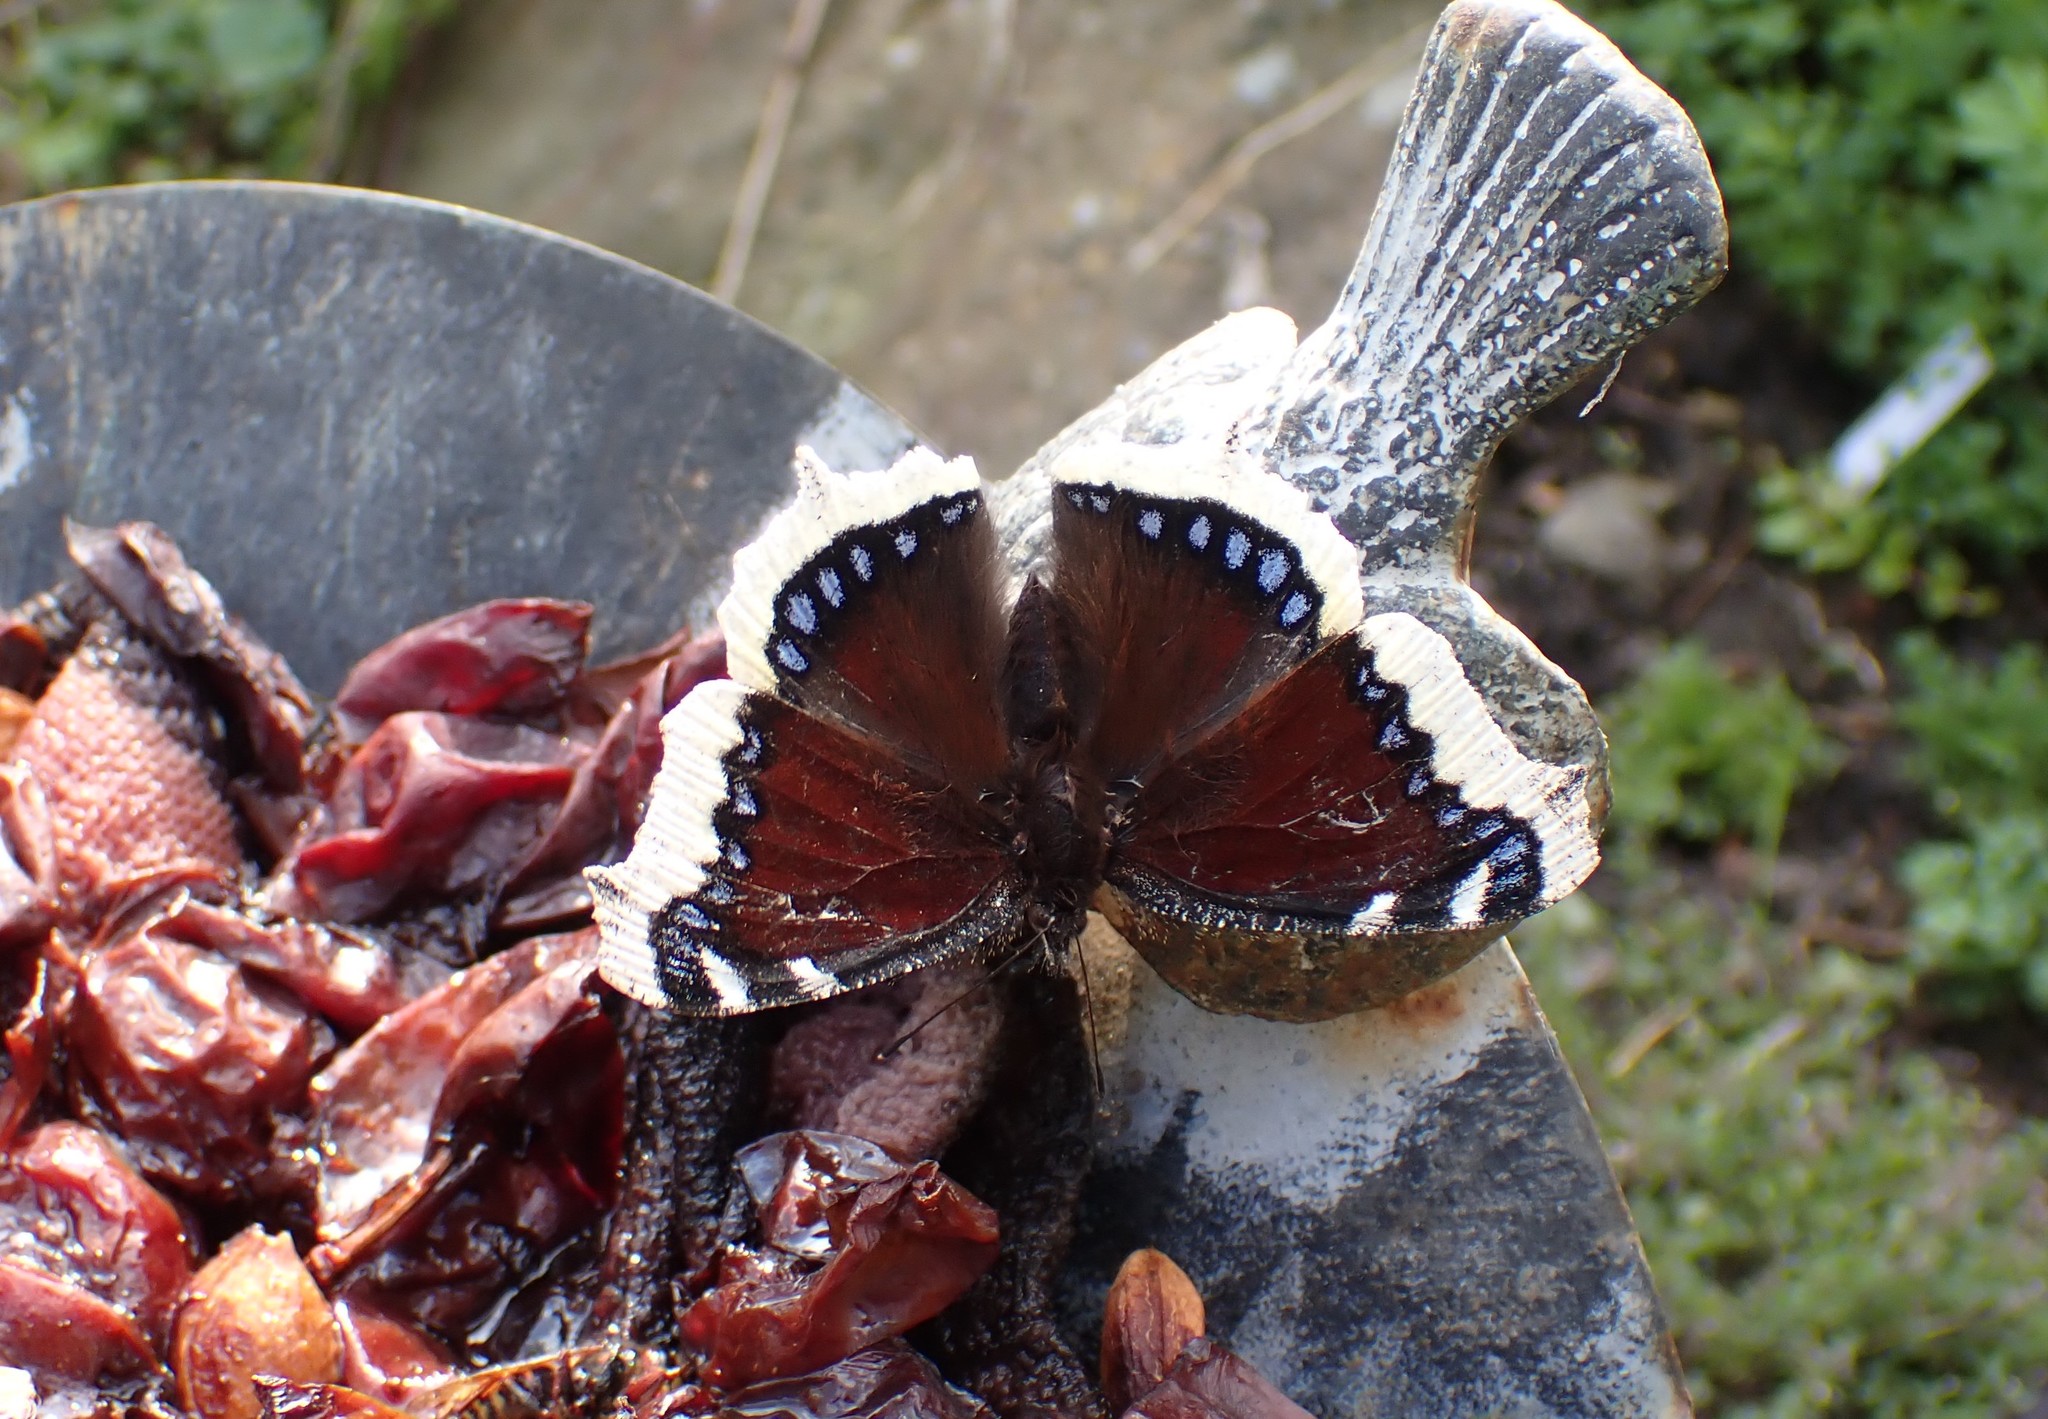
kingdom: Animalia
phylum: Arthropoda
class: Insecta
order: Lepidoptera
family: Nymphalidae
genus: Nymphalis
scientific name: Nymphalis antiopa
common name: Camberwell beauty
